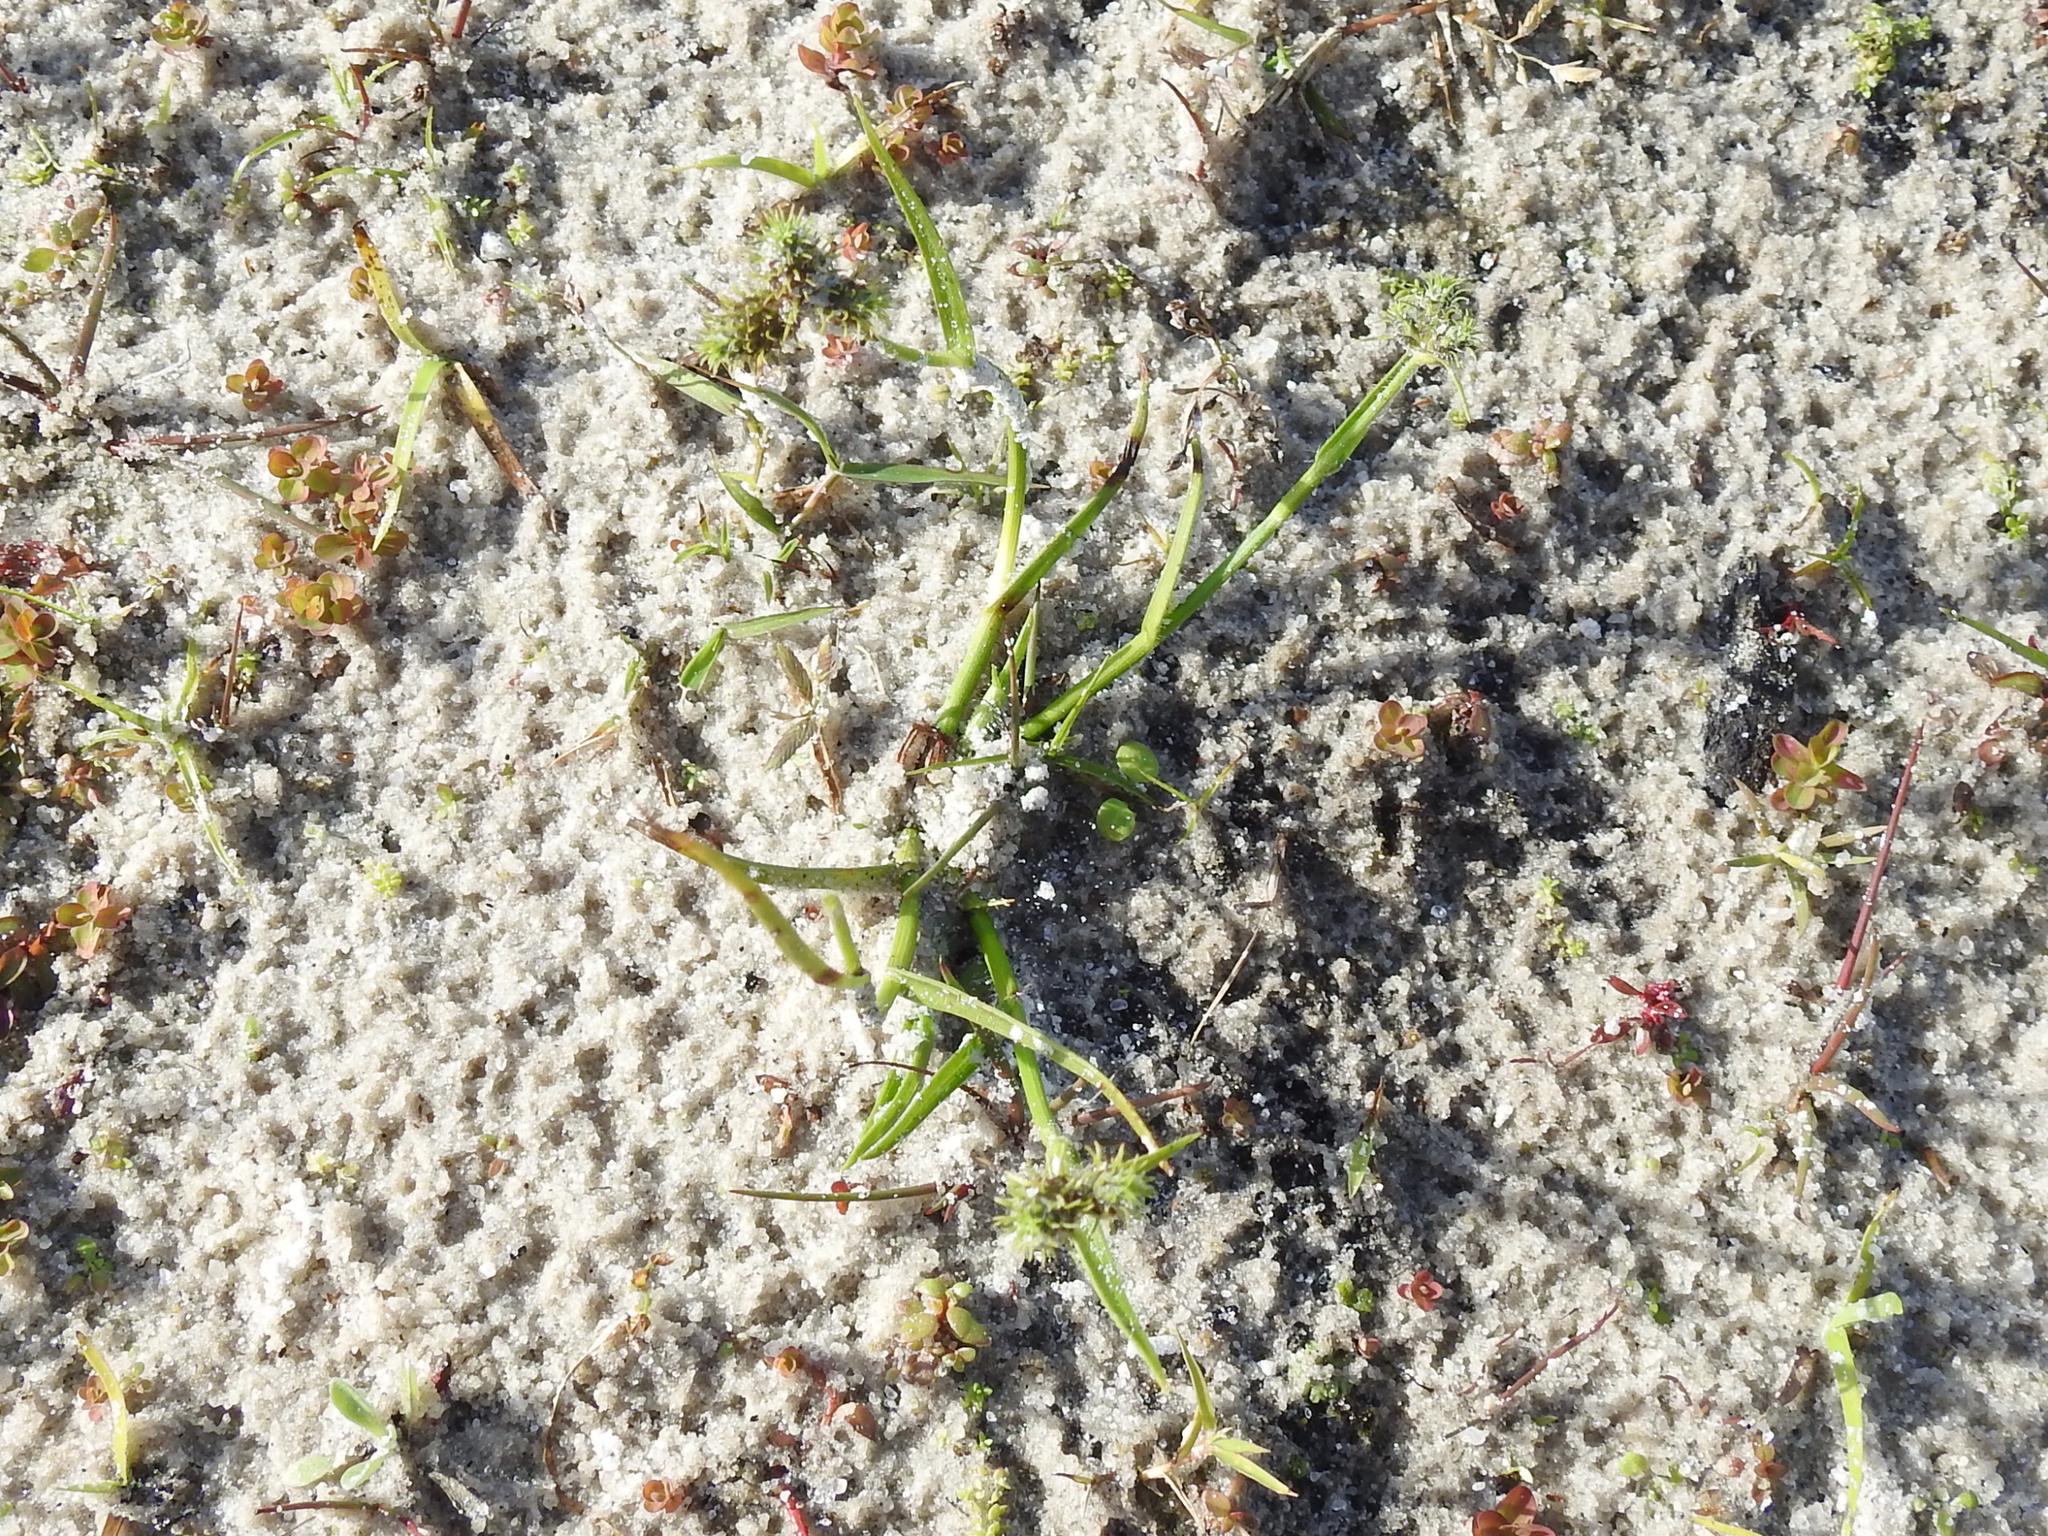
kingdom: Plantae
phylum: Tracheophyta
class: Liliopsida
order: Poales
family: Cyperaceae
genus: Fuirena
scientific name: Fuirena pumila
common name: Dwarf umbrella sedge
